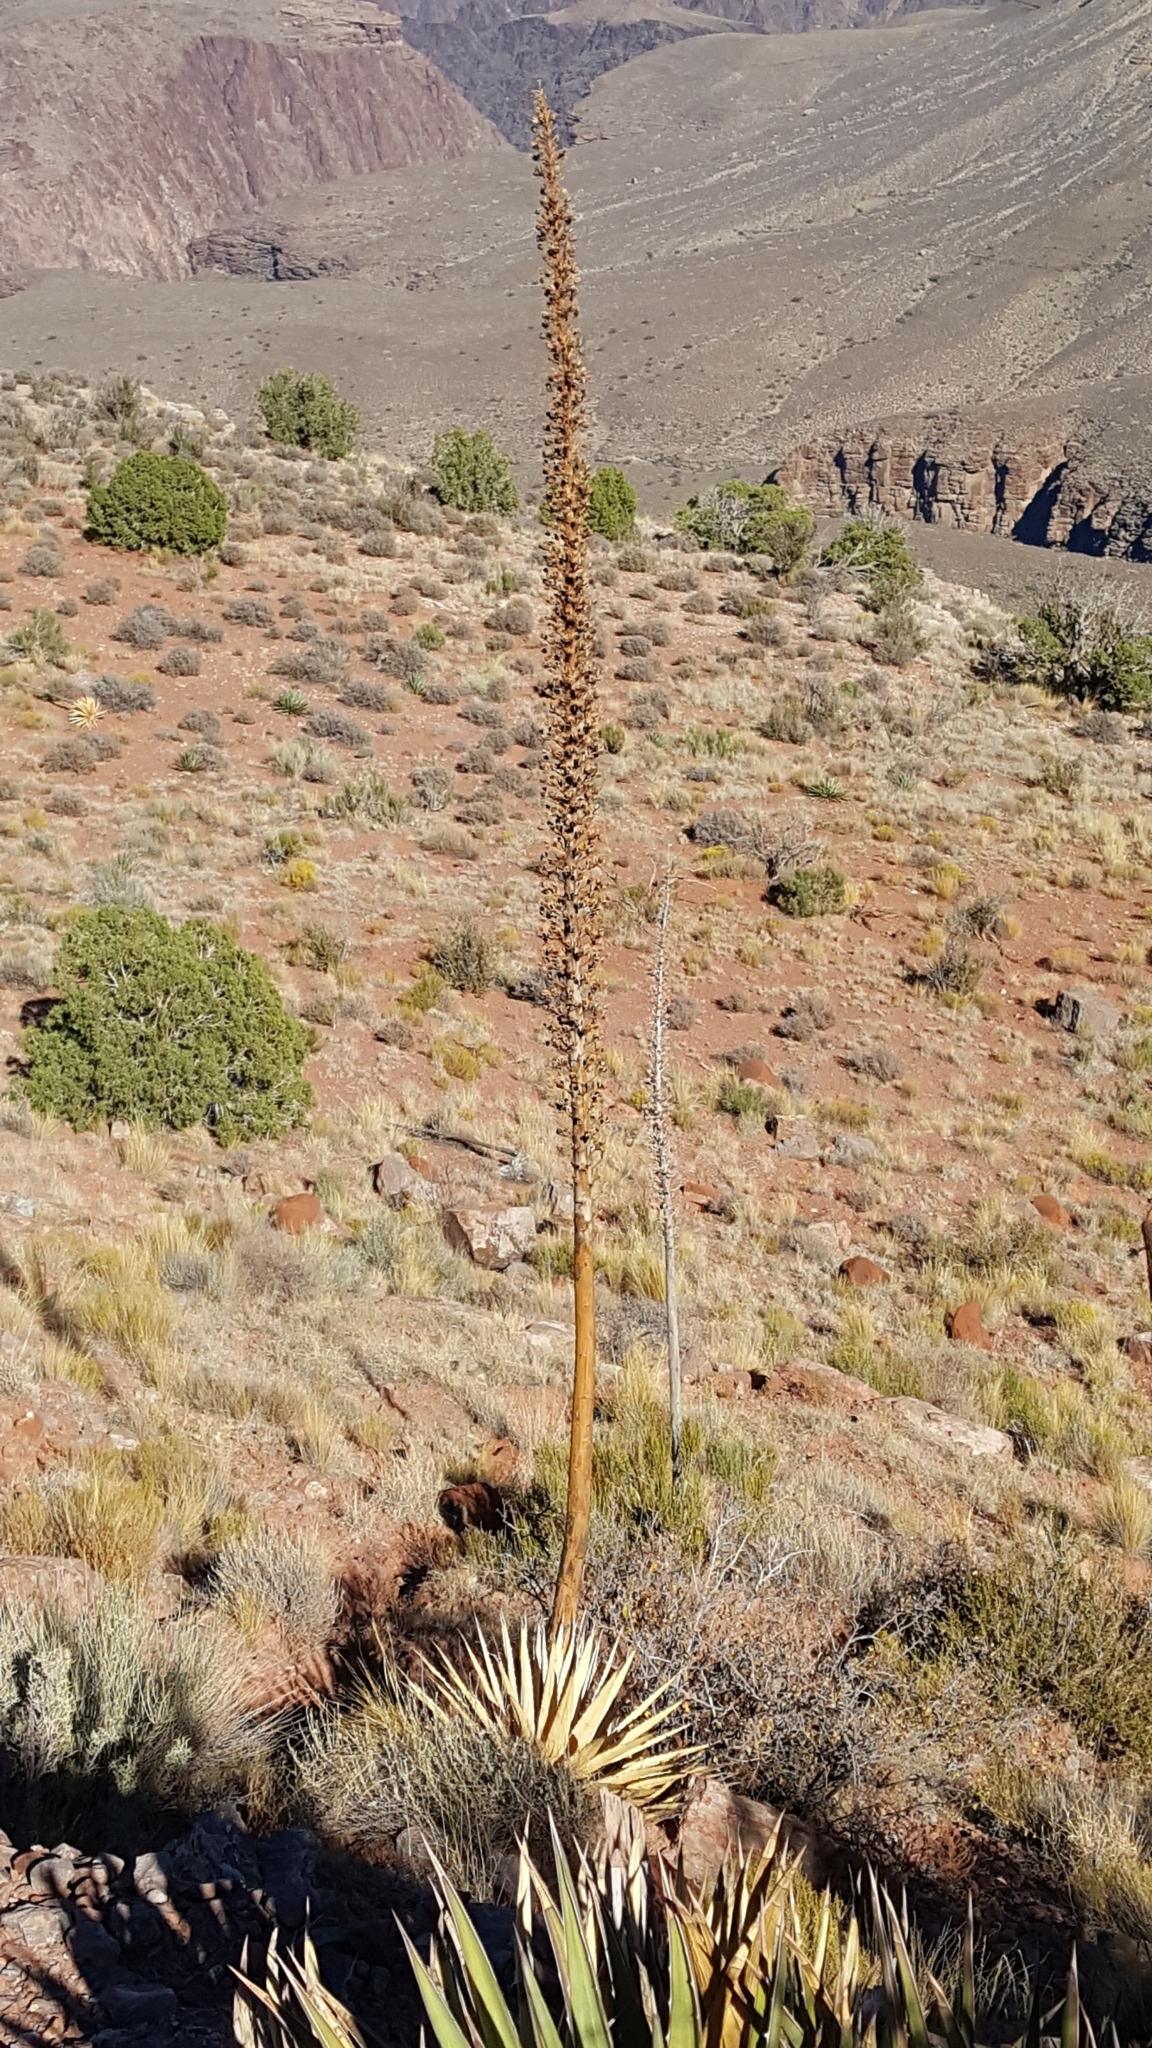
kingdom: Plantae
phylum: Tracheophyta
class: Liliopsida
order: Asparagales
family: Asparagaceae
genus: Agave
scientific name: Agave utahensis
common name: Utah agave
